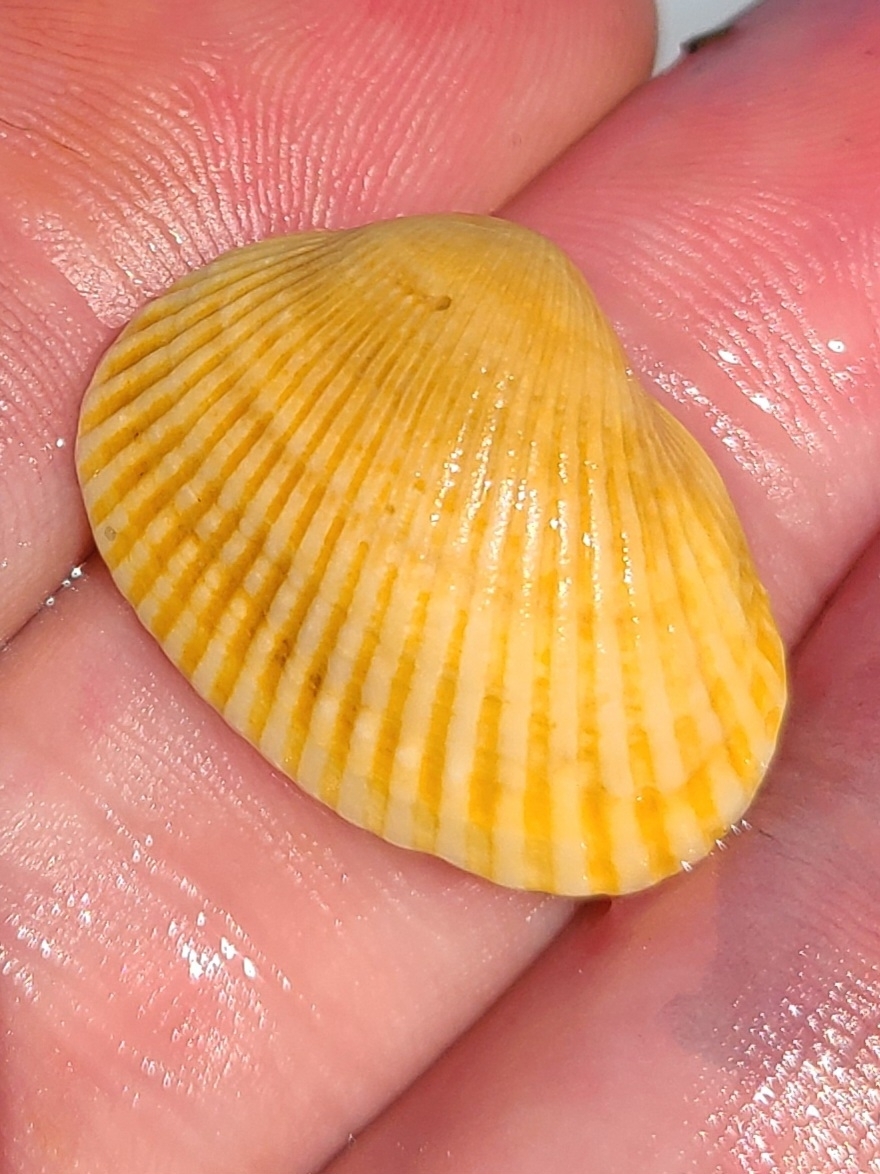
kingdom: Animalia
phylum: Mollusca
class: Bivalvia
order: Arcida
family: Arcidae
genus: Anadara
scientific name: Anadara transversa
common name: Transverse ark
